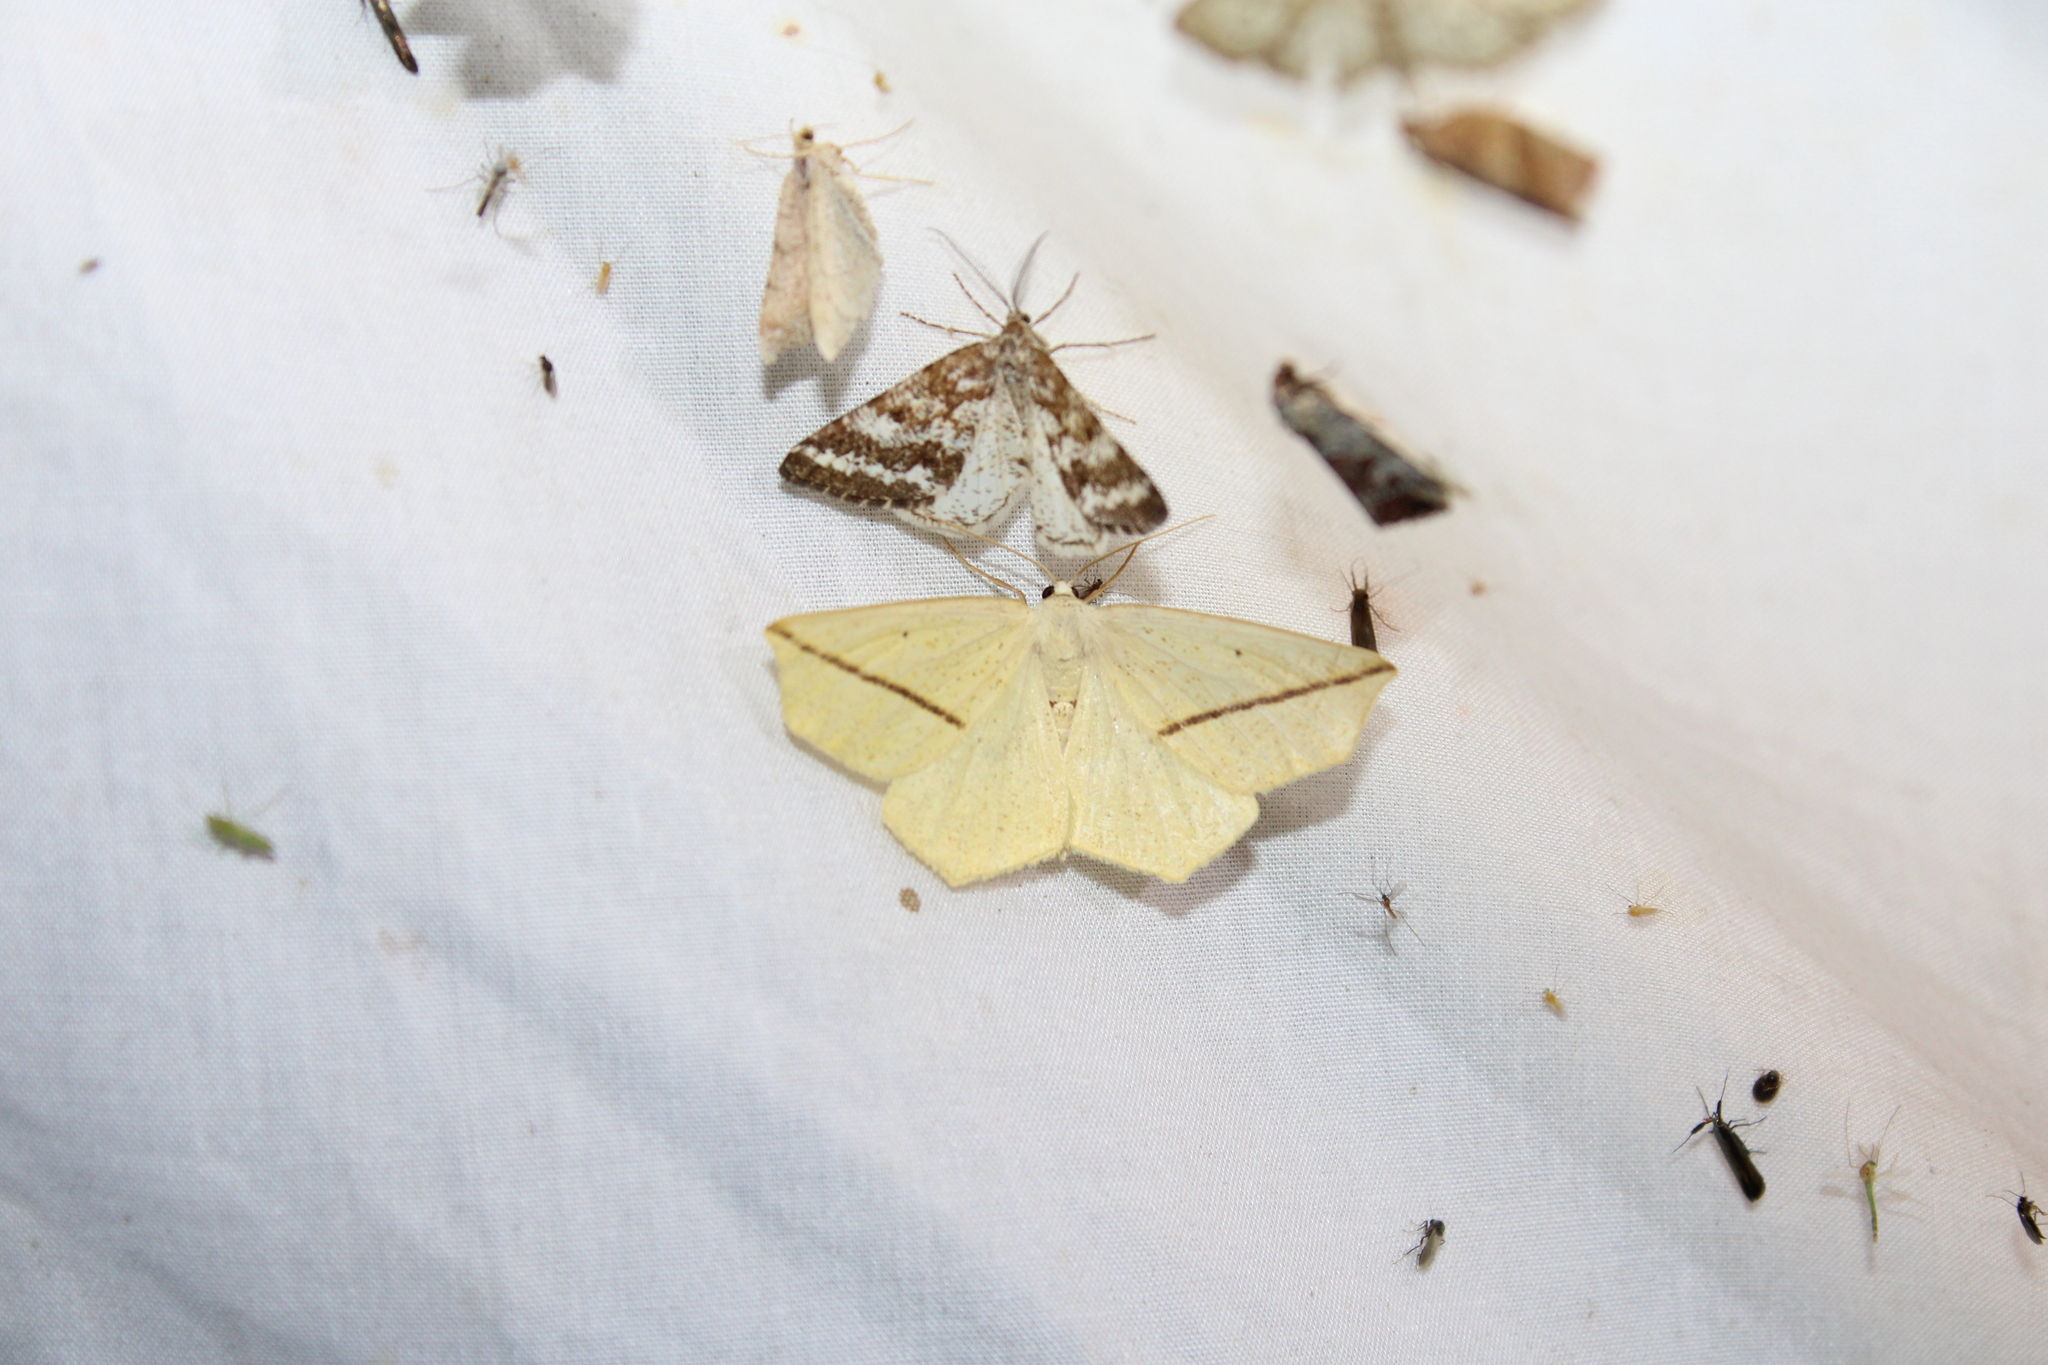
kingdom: Animalia
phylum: Arthropoda
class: Insecta
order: Lepidoptera
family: Geometridae
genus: Tetracis
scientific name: Tetracis crocallata
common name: Yellow slant-line
